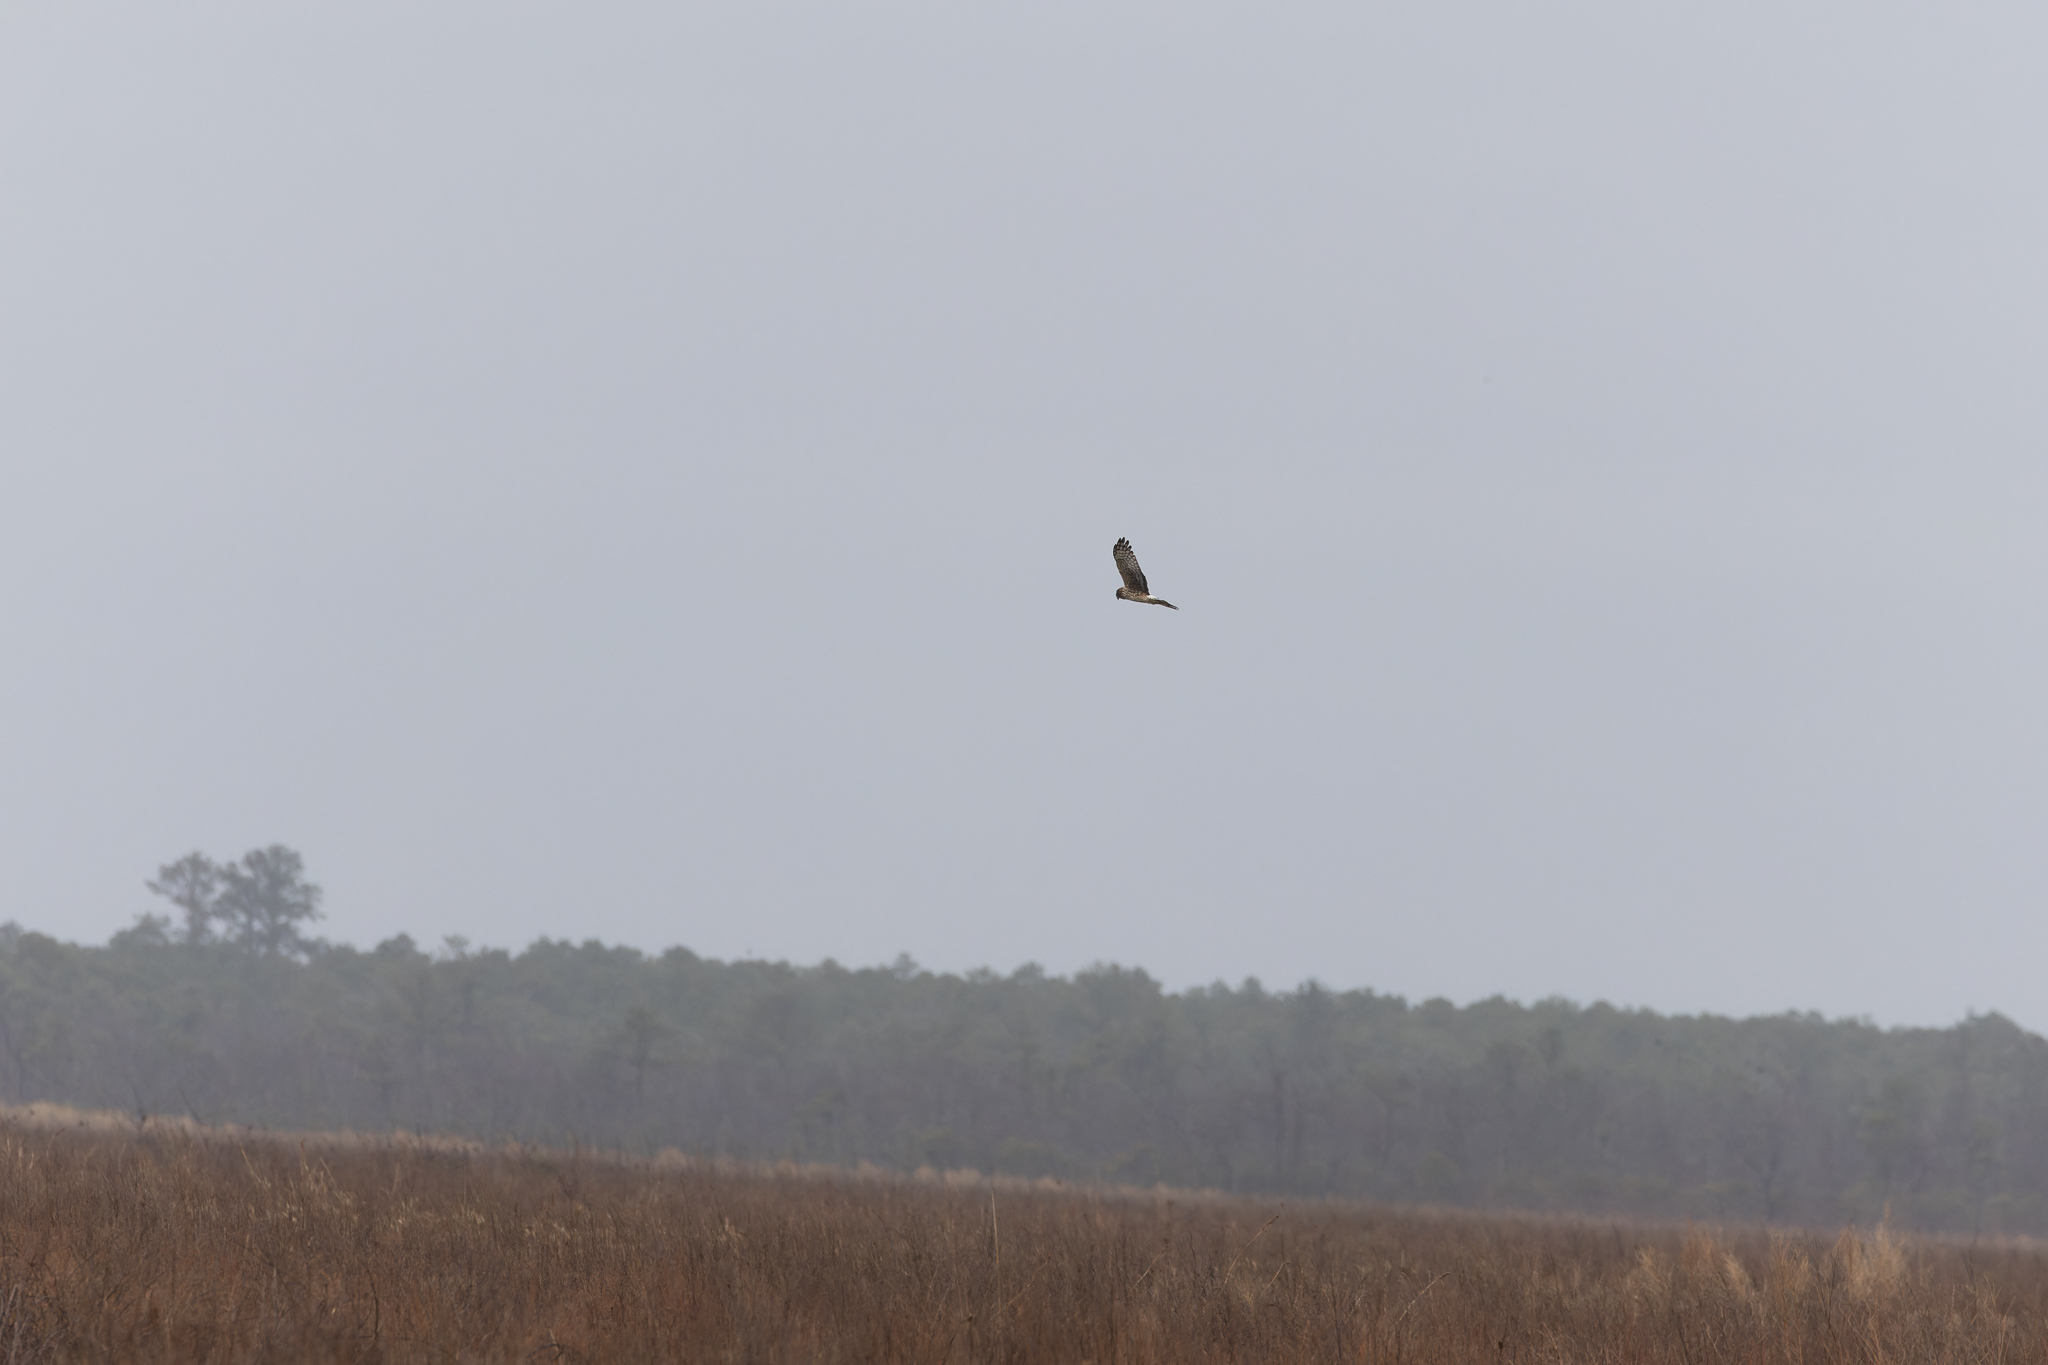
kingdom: Animalia
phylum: Chordata
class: Aves
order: Accipitriformes
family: Accipitridae
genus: Circus
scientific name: Circus cyaneus
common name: Hen harrier
